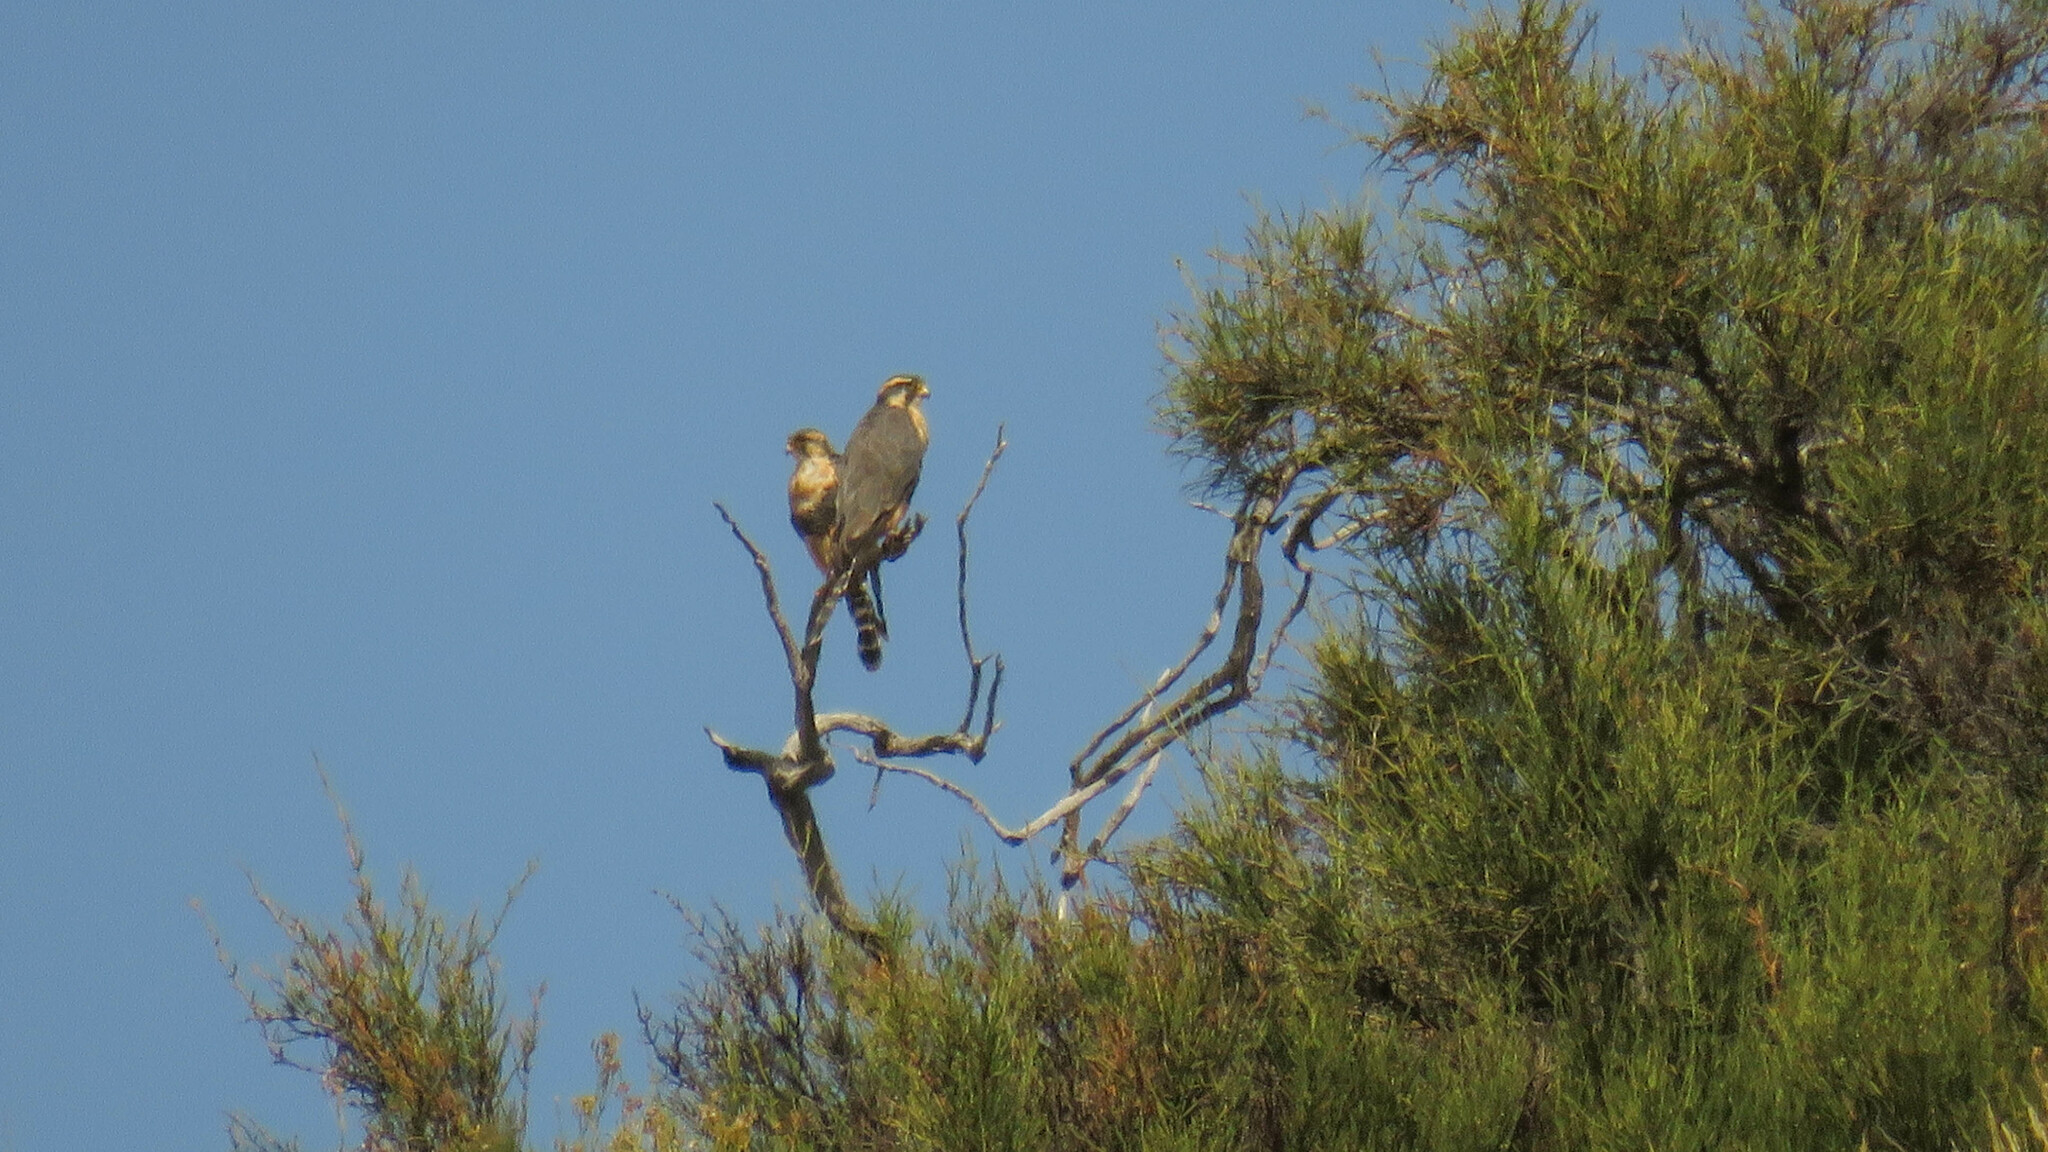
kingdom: Animalia
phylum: Chordata
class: Aves
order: Falconiformes
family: Falconidae
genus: Falco
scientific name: Falco femoralis
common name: Aplomado falcon
